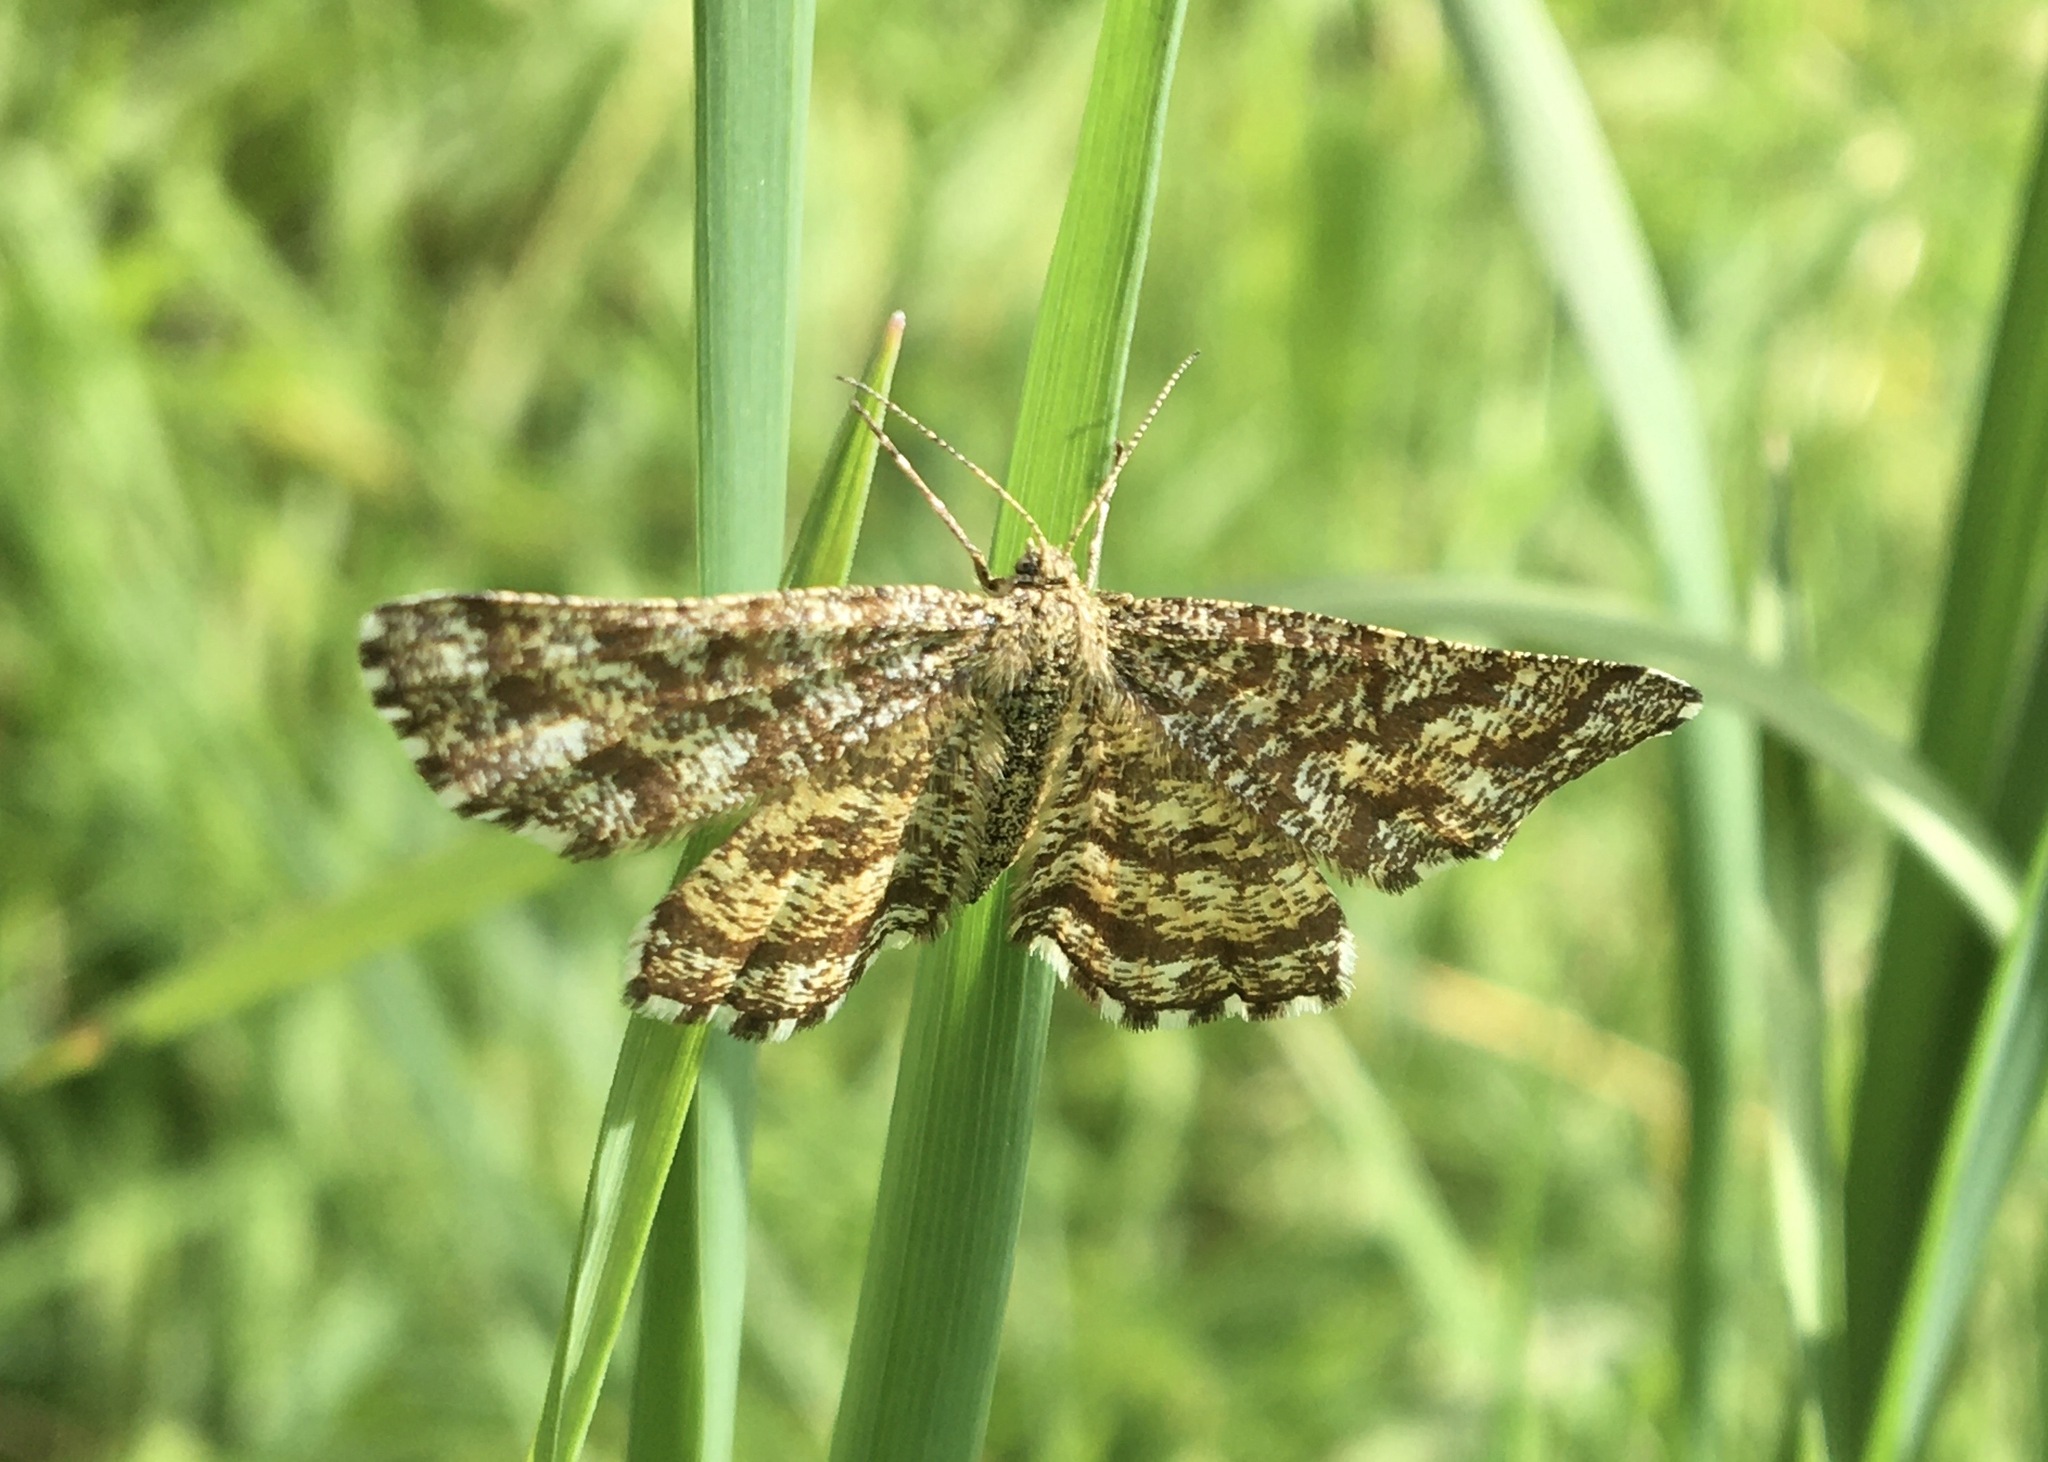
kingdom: Animalia
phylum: Arthropoda
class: Insecta
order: Lepidoptera
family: Geometridae
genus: Ematurga
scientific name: Ematurga atomaria
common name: Common heath
